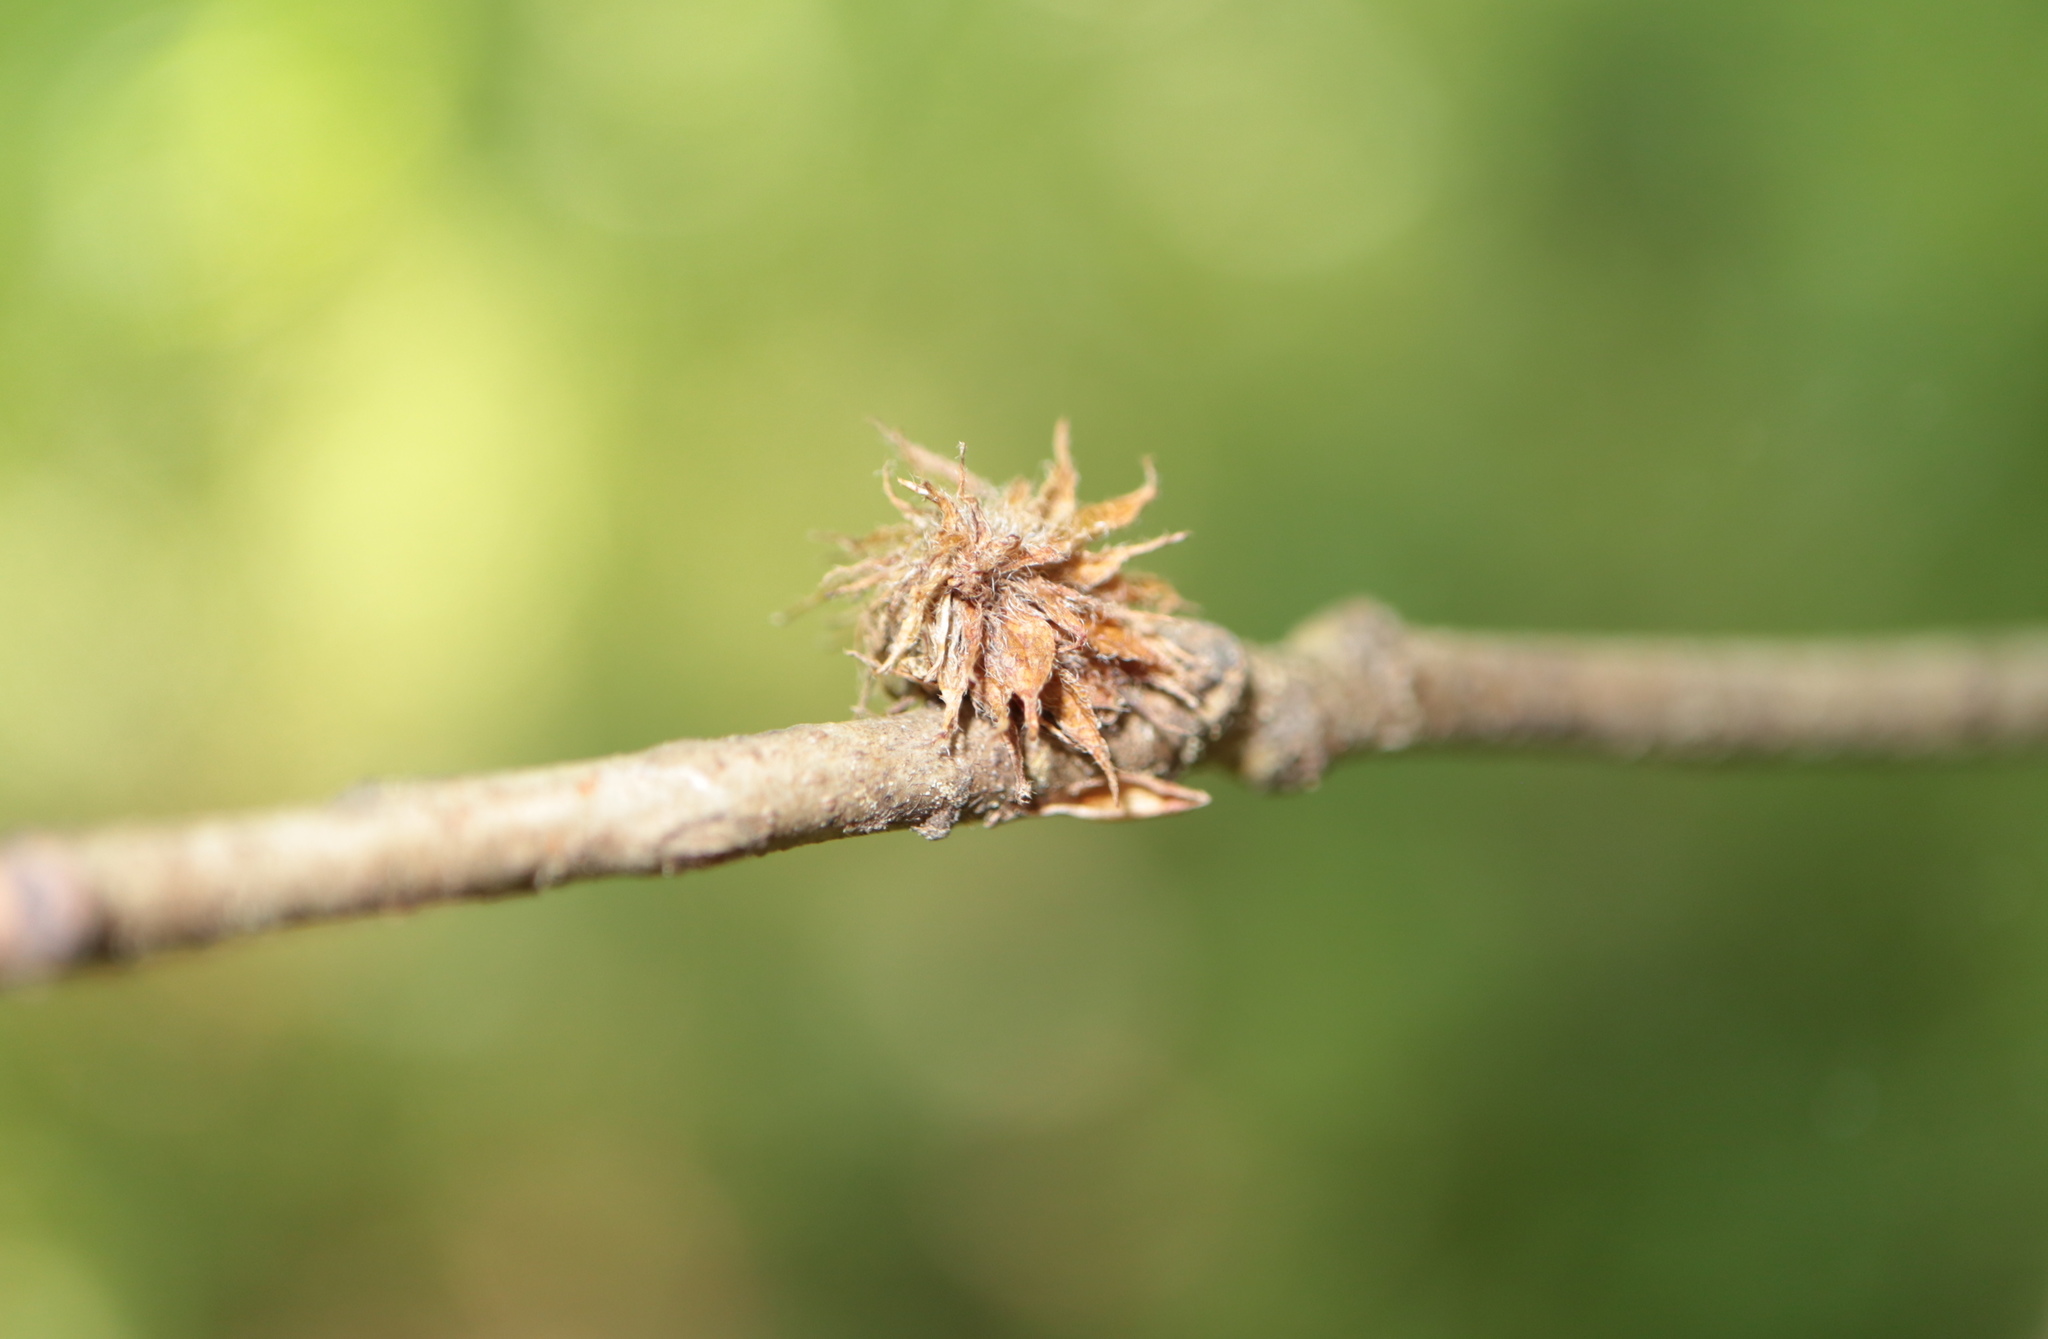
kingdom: Animalia
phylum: Arthropoda
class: Insecta
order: Hymenoptera
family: Cynipidae
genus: Dryocosmus
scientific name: Dryocosmus
